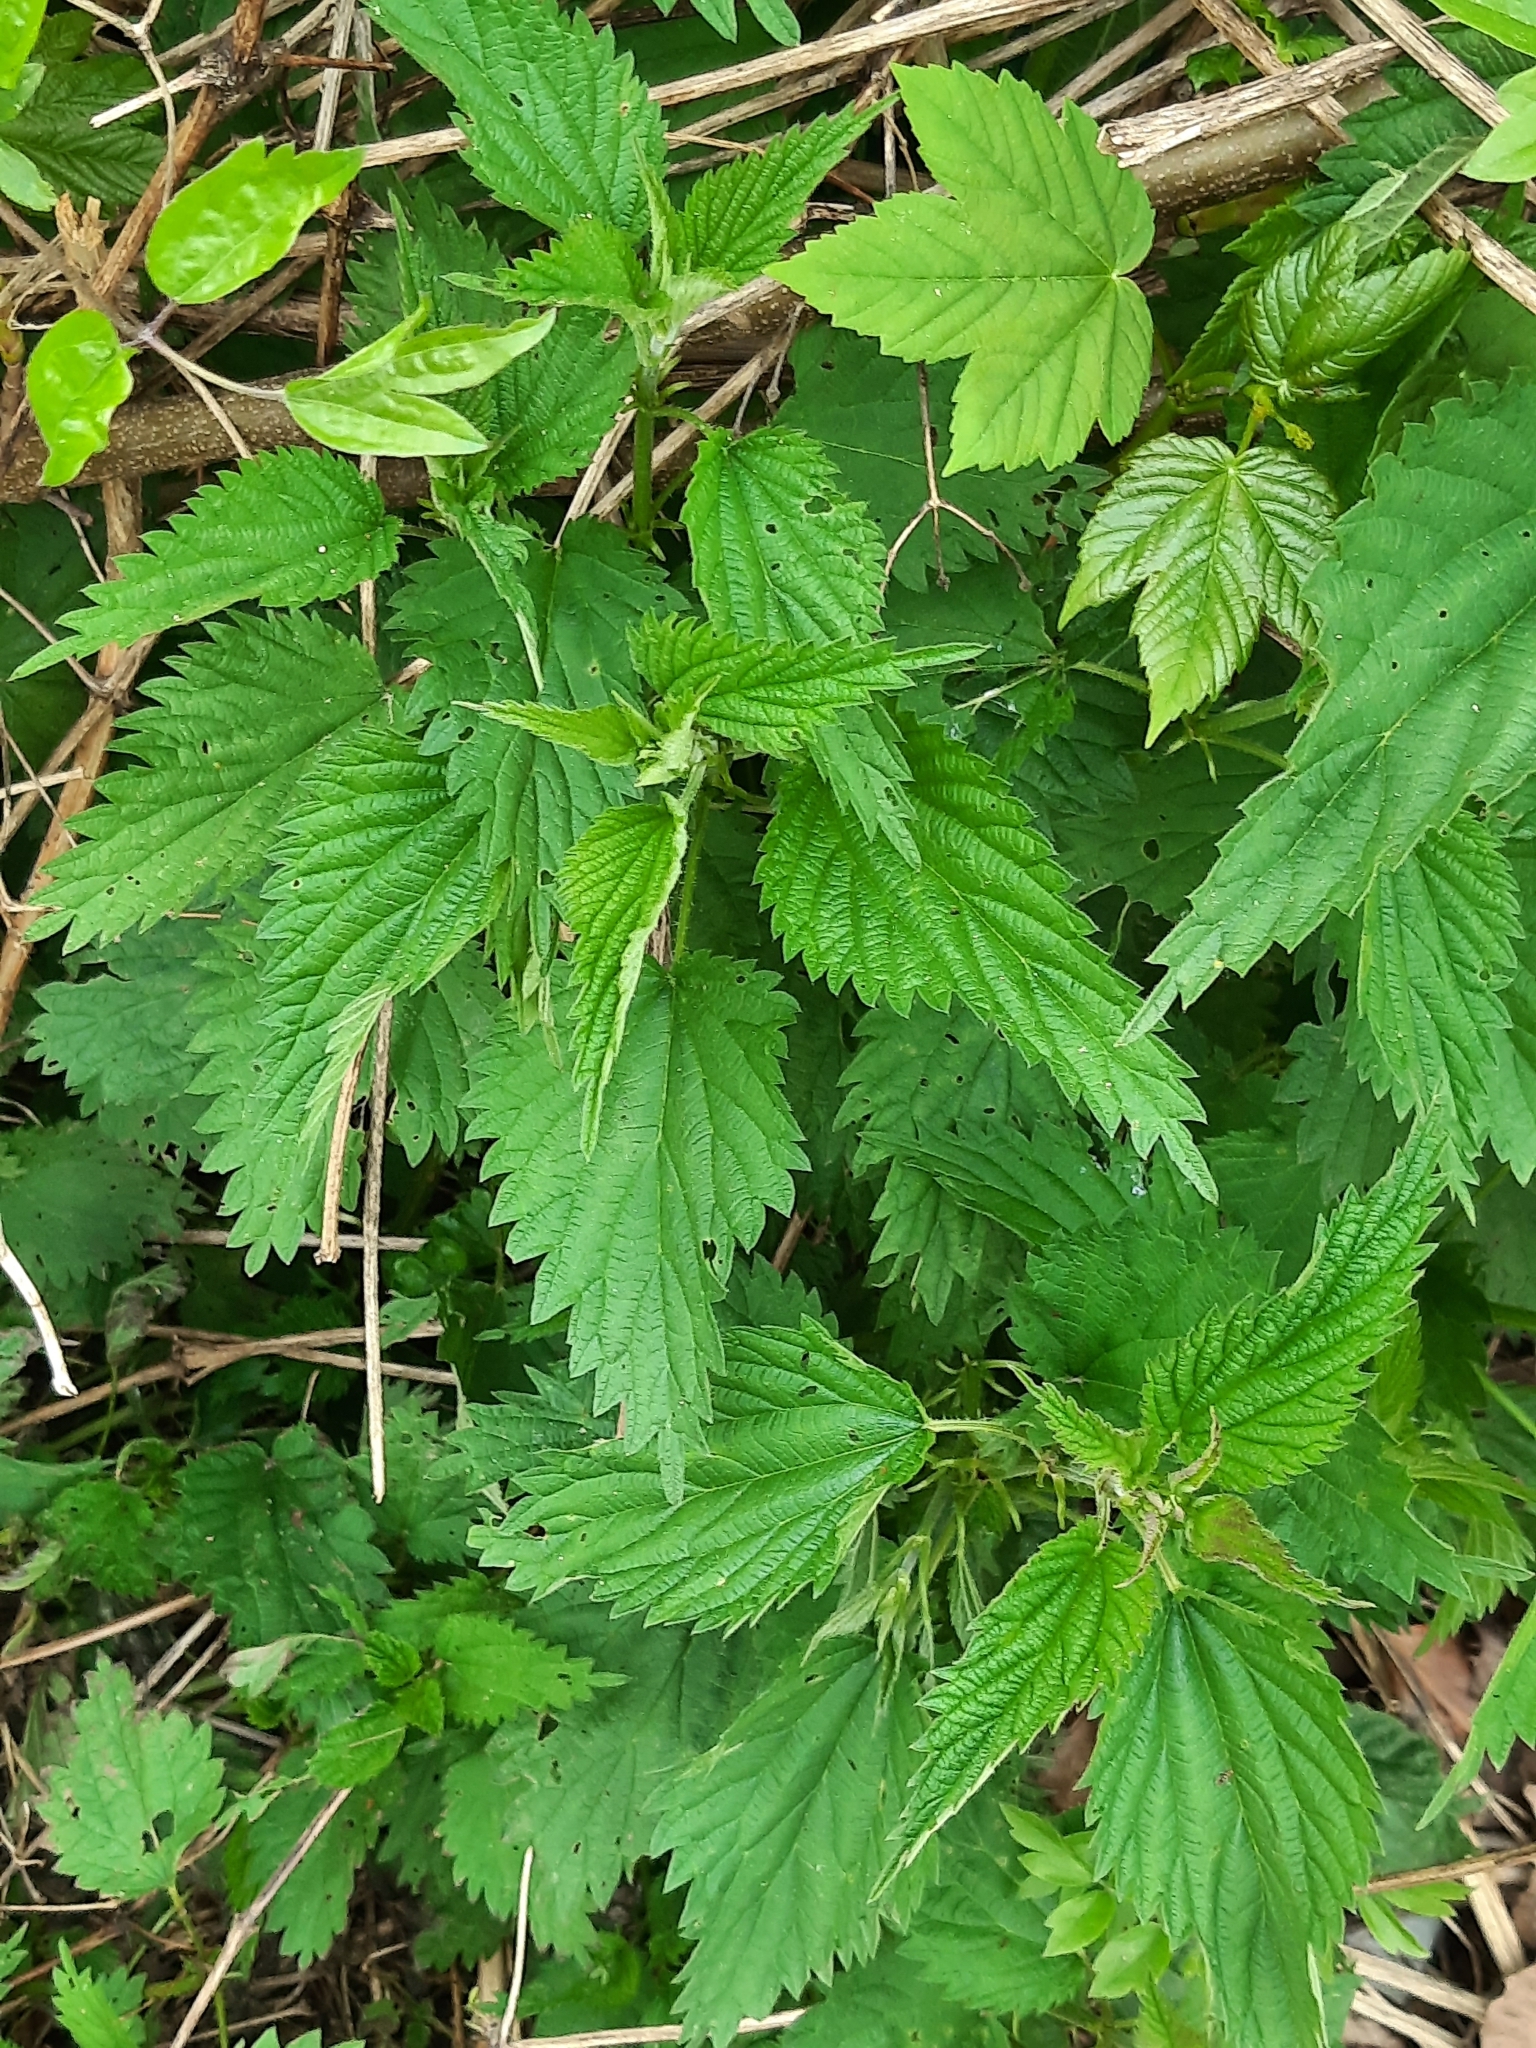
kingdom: Plantae
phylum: Tracheophyta
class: Magnoliopsida
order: Rosales
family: Urticaceae
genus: Urtica
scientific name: Urtica dioica
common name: Common nettle
